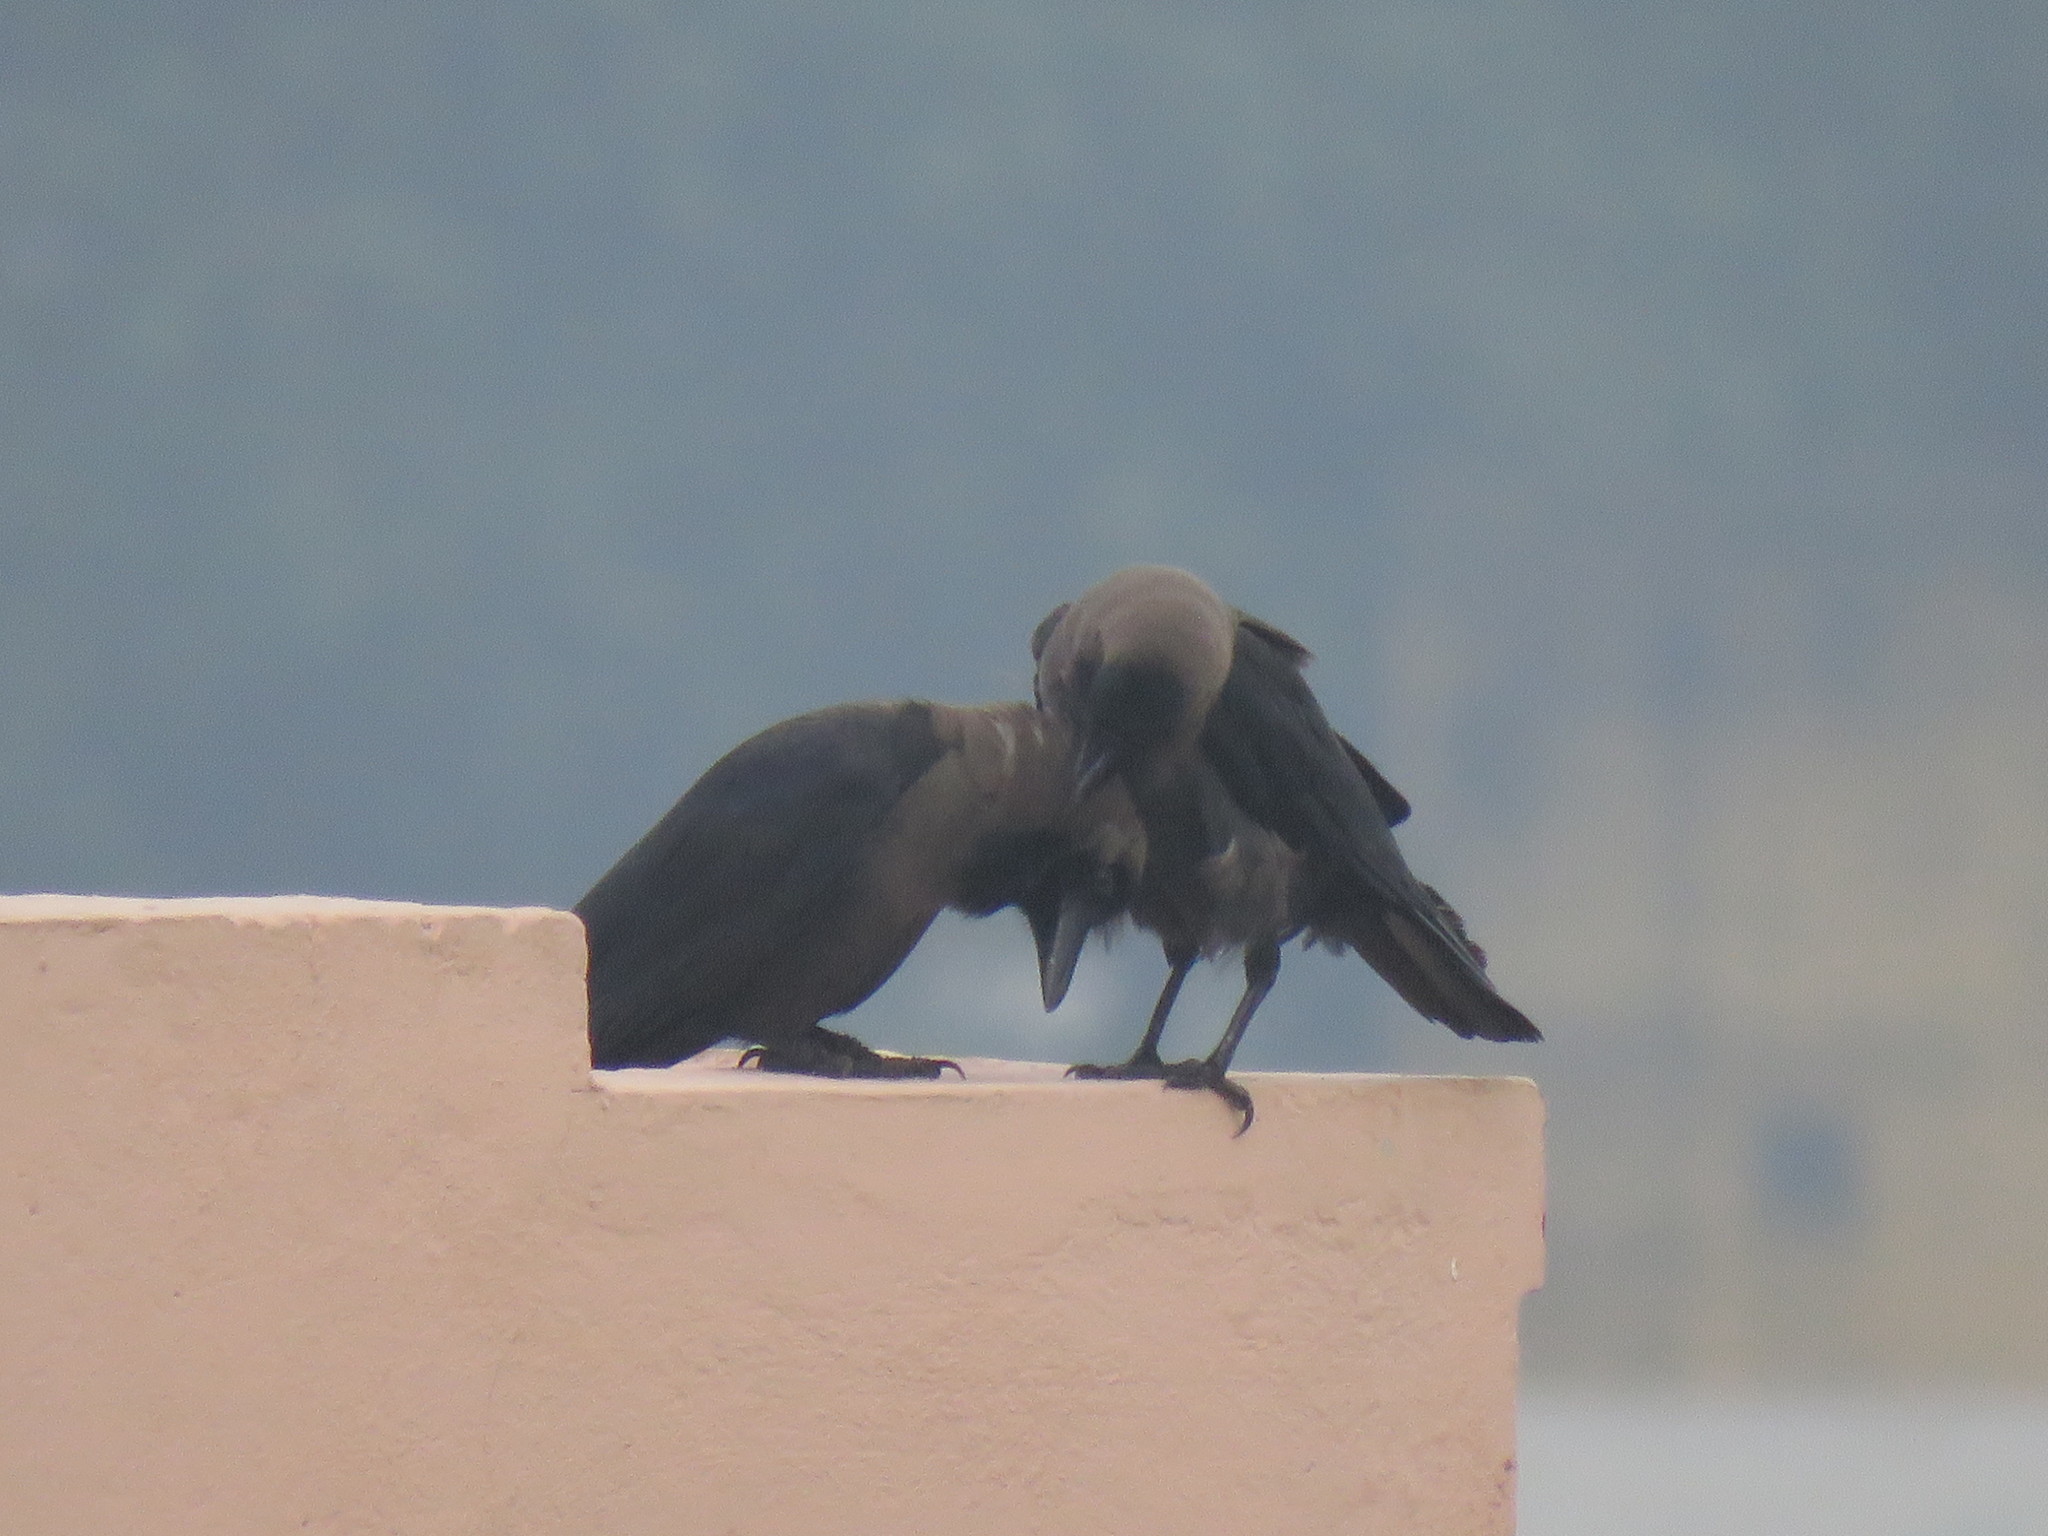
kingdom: Animalia
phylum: Chordata
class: Aves
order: Passeriformes
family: Corvidae
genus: Corvus
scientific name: Corvus splendens
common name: House crow
